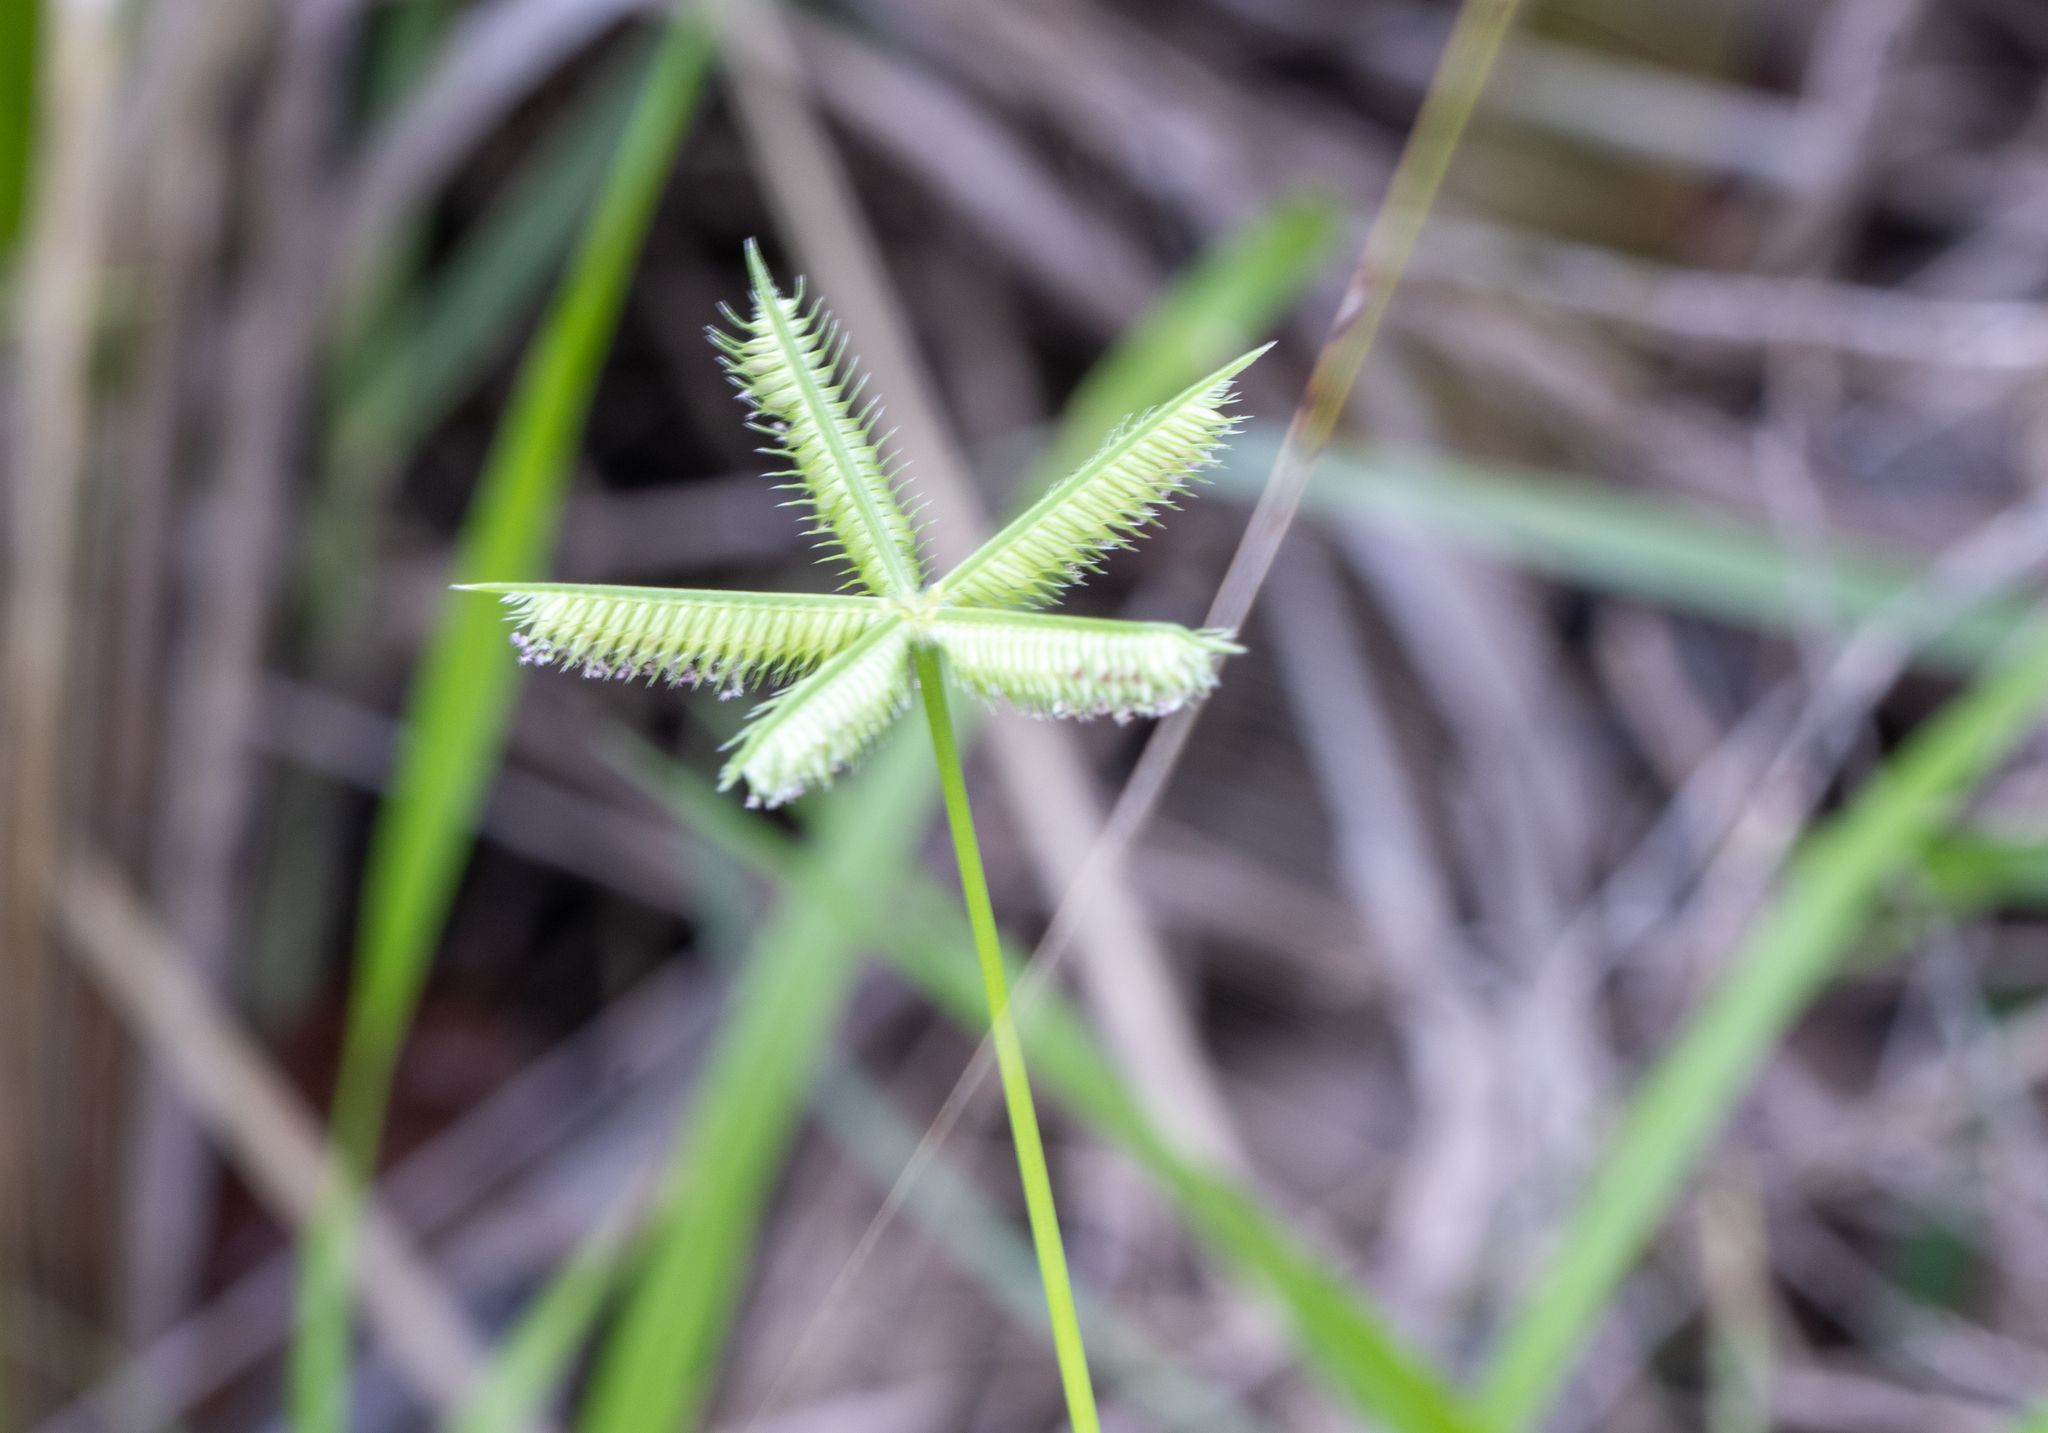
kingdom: Plantae
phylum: Tracheophyta
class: Liliopsida
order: Poales
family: Poaceae
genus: Dactyloctenium
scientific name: Dactyloctenium aegyptium
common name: Egyptian grass
